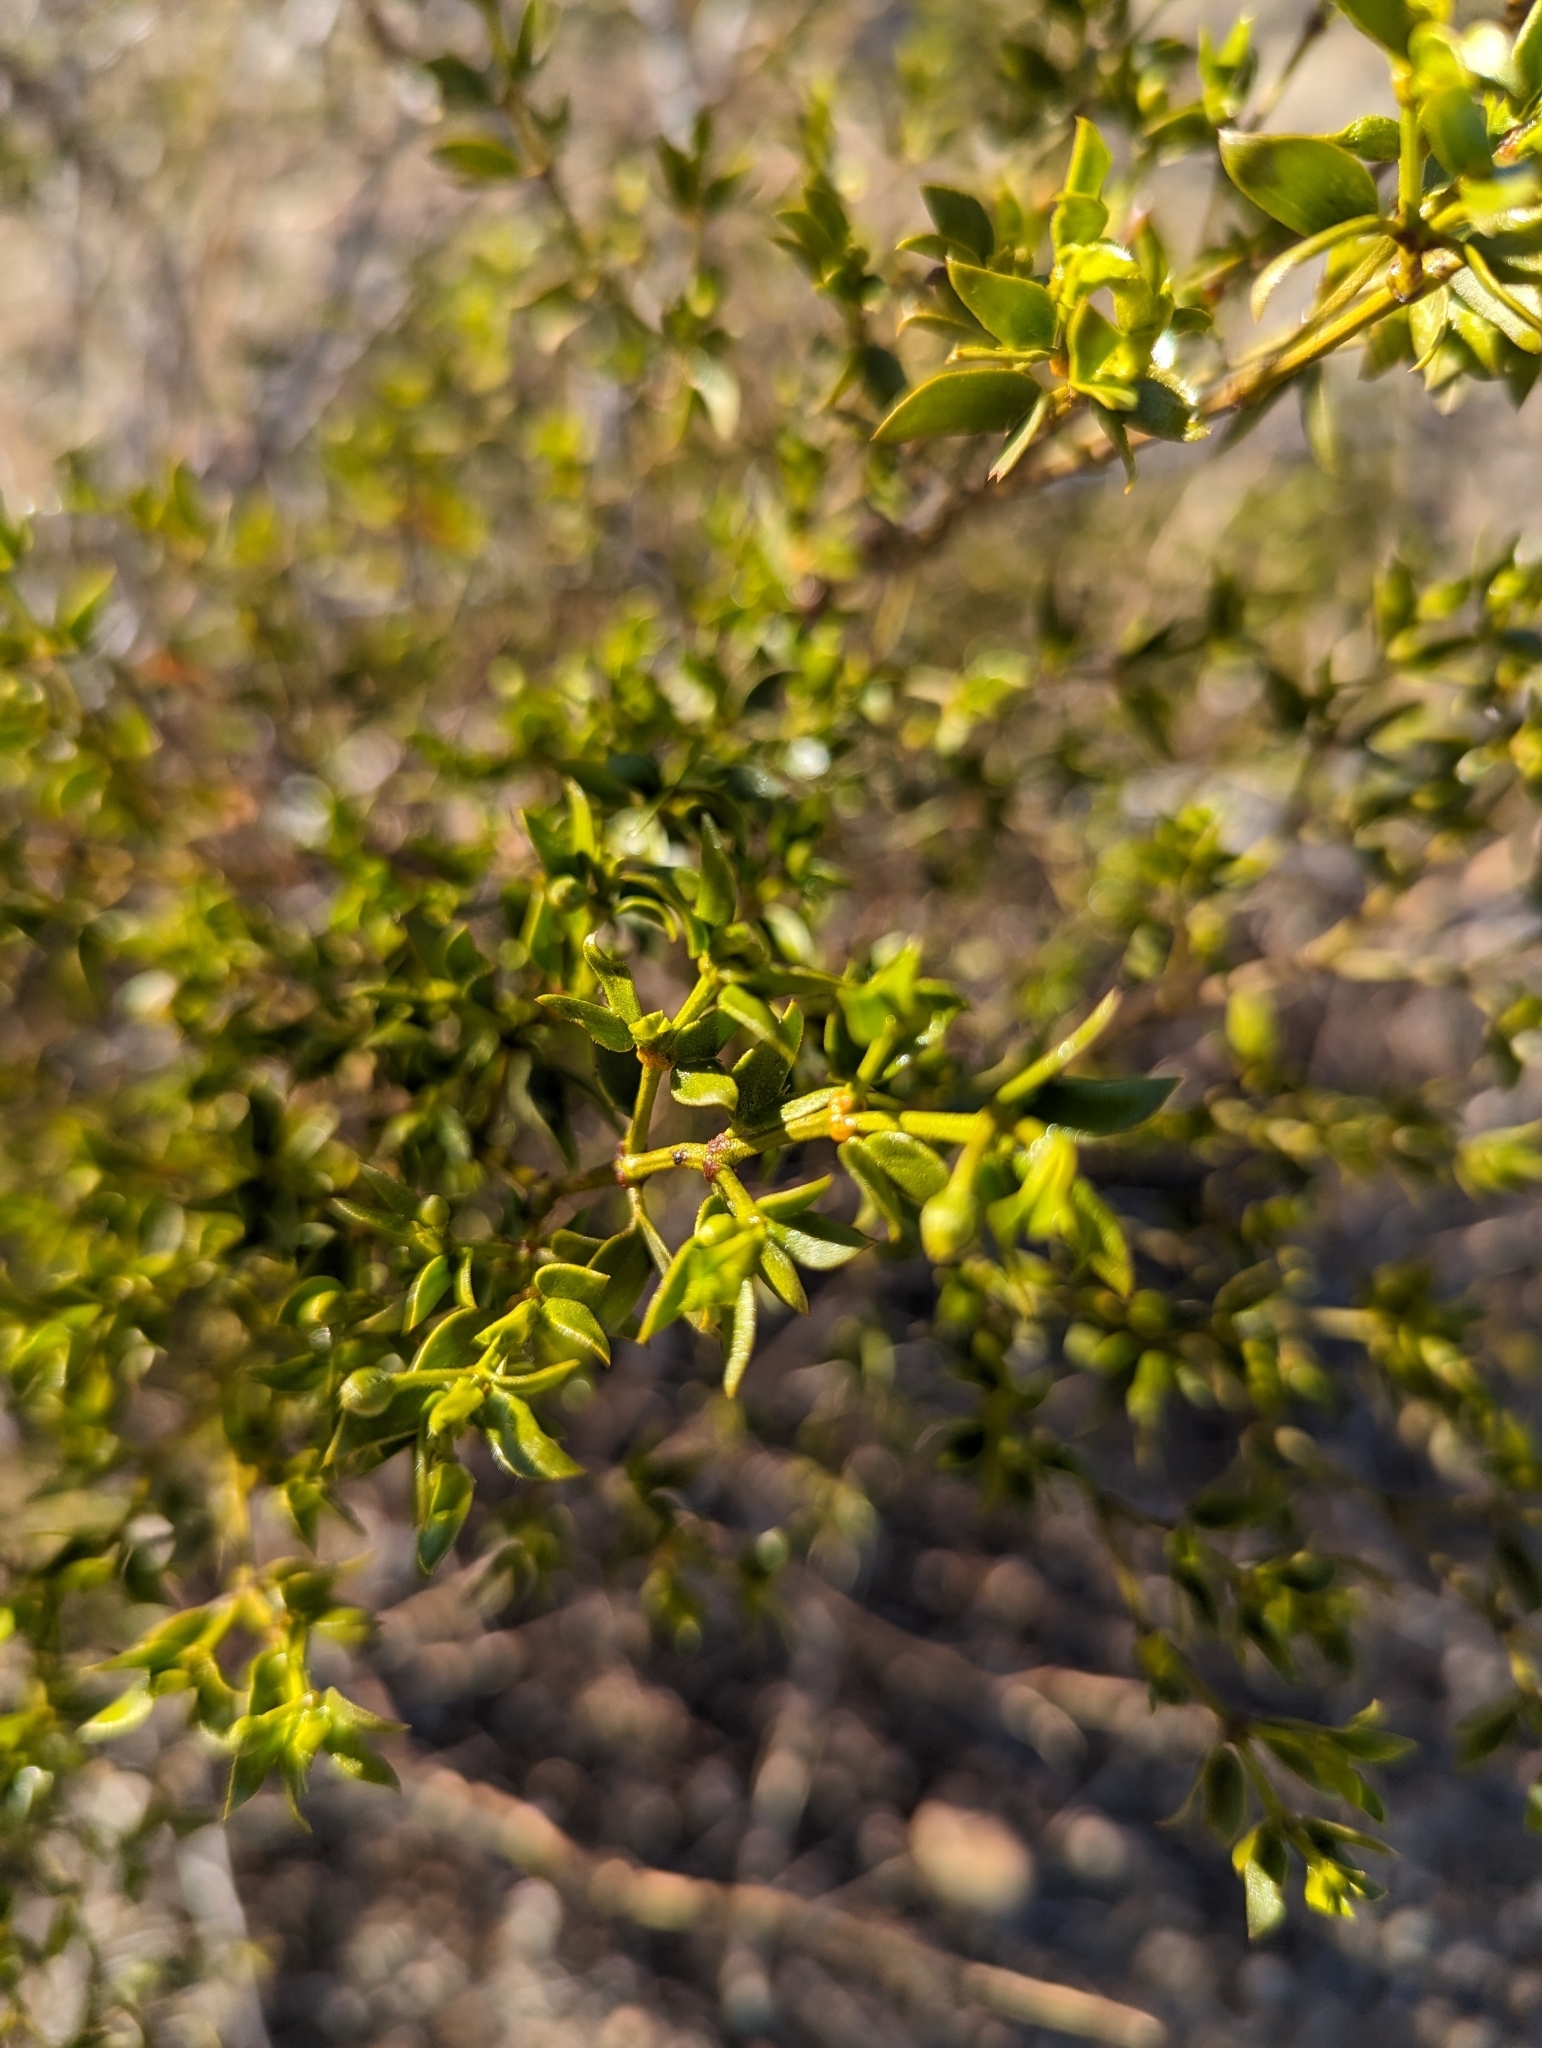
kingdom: Plantae
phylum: Tracheophyta
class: Magnoliopsida
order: Zygophyllales
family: Zygophyllaceae
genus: Larrea
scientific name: Larrea tridentata
